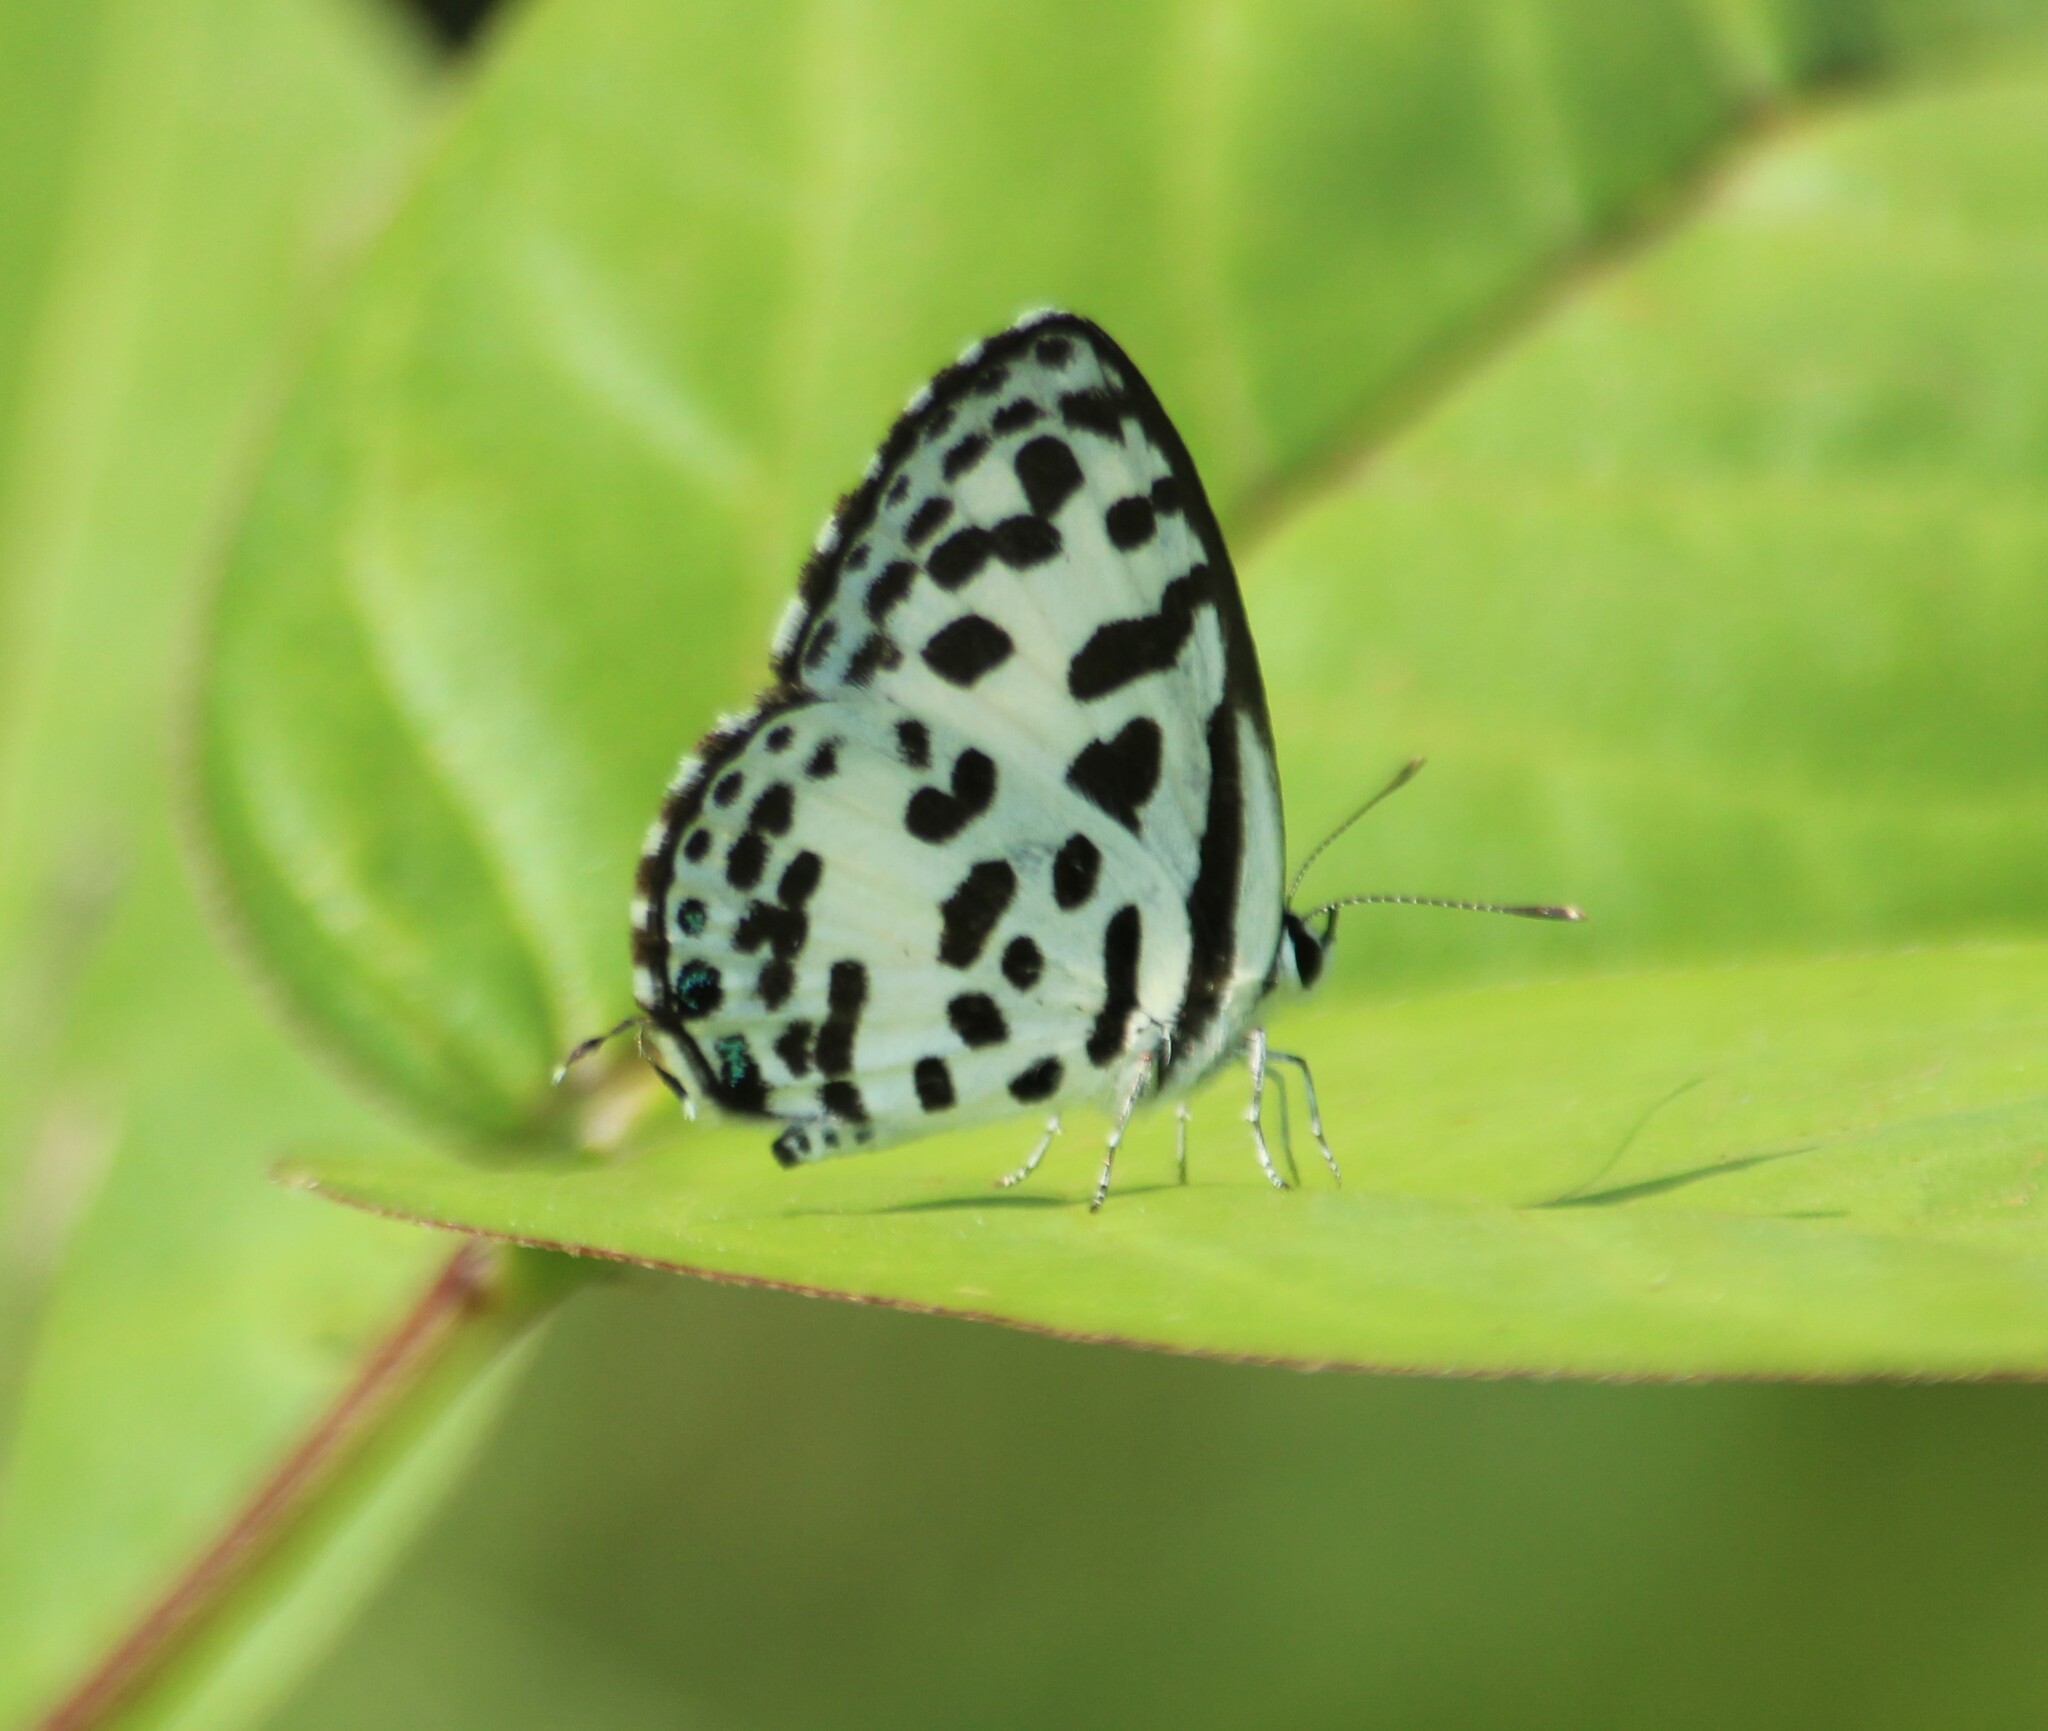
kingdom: Animalia
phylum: Arthropoda
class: Insecta
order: Lepidoptera
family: Lycaenidae
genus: Castalius
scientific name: Castalius rosimon
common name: Common pierrot
